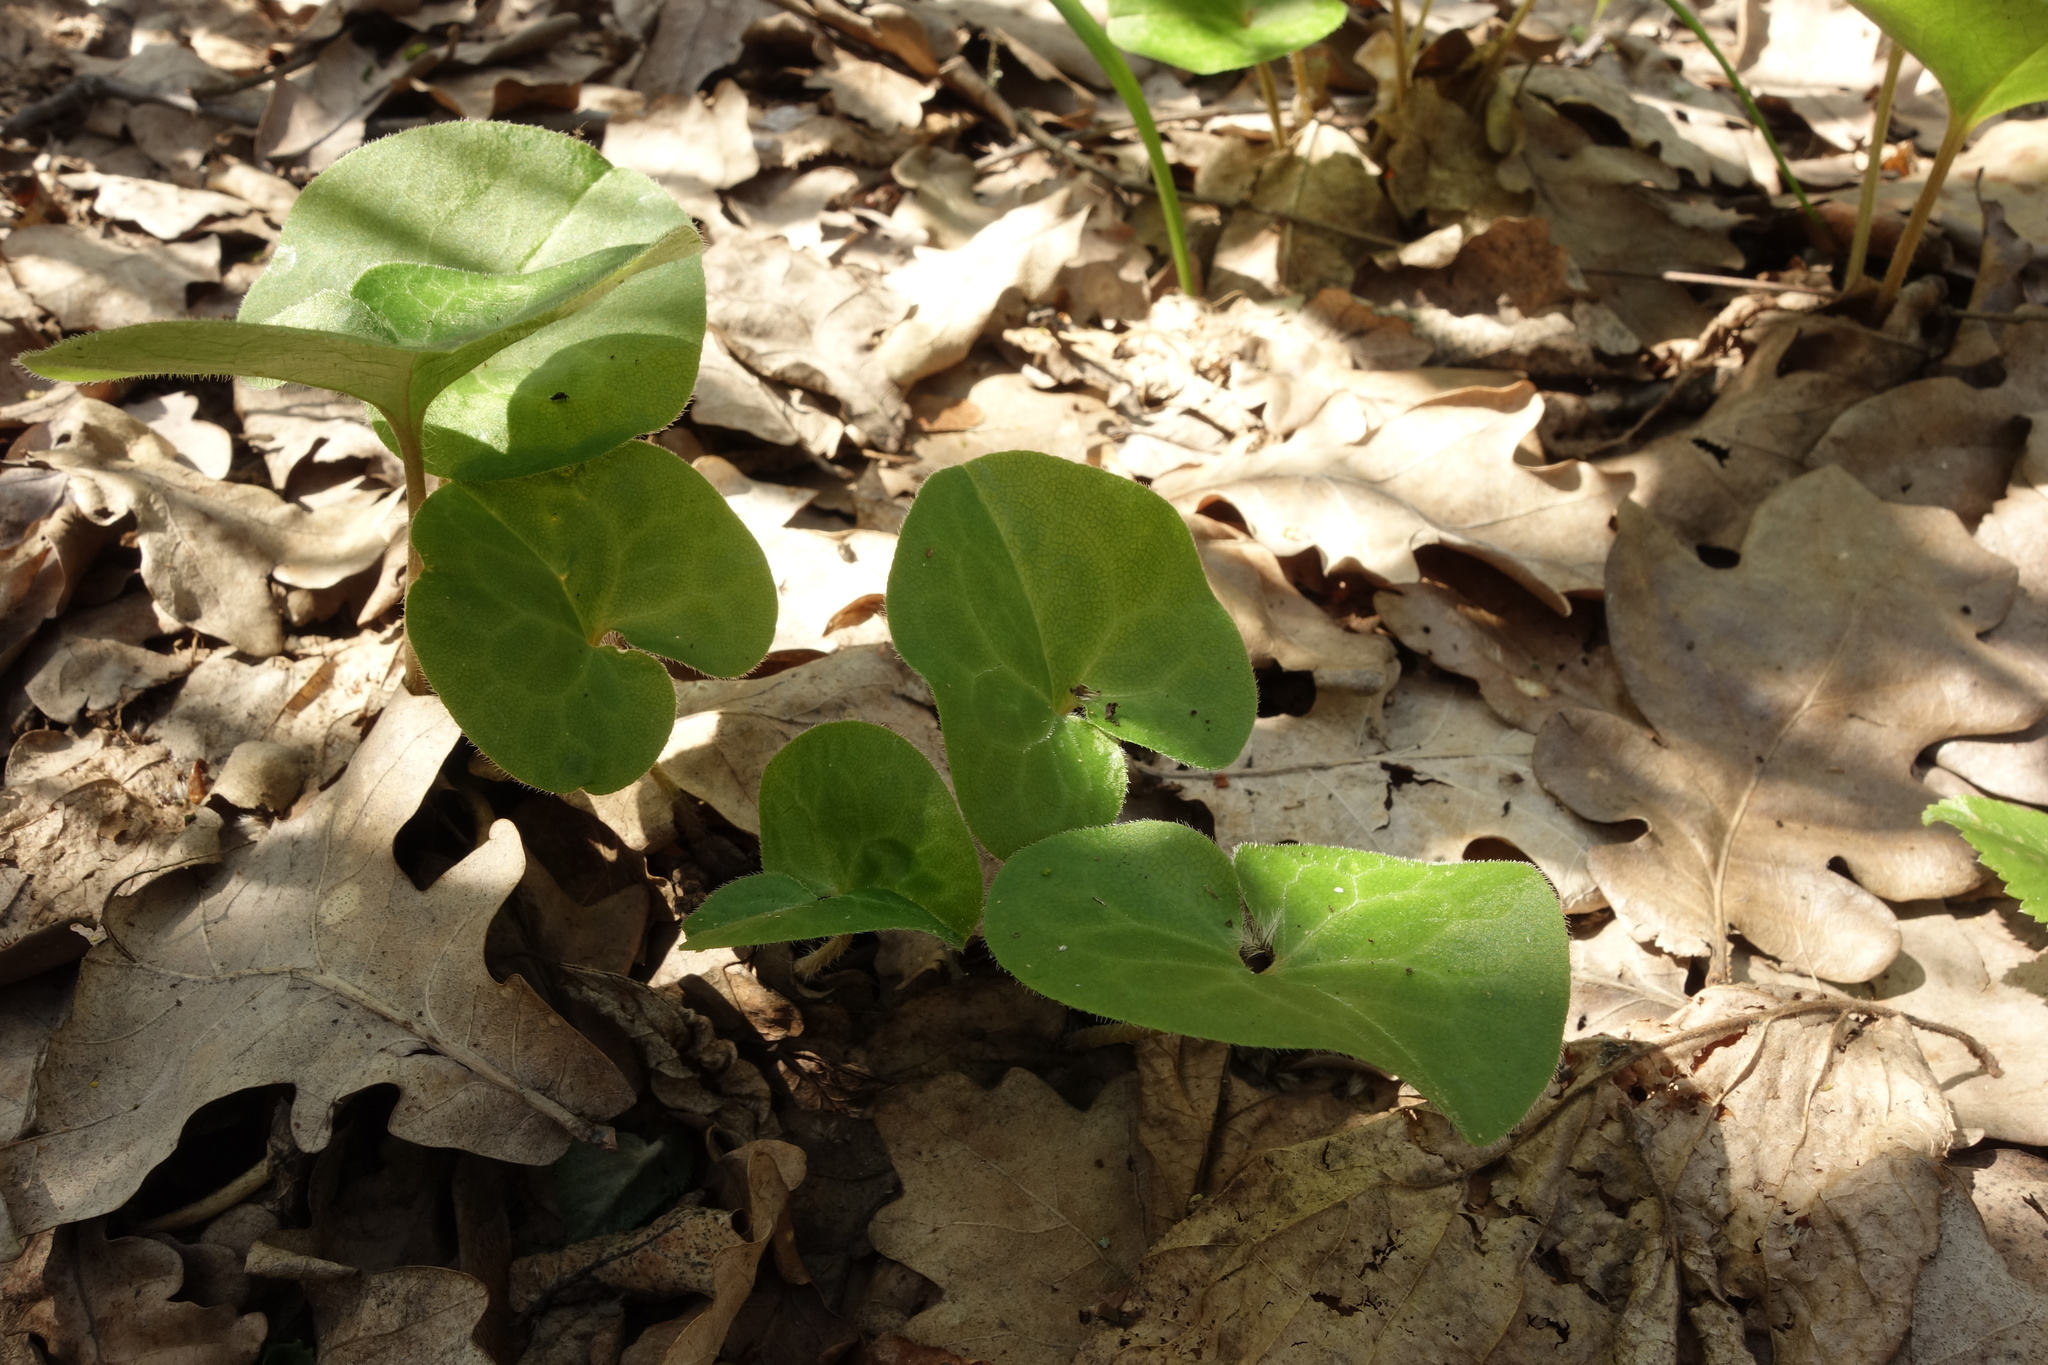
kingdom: Plantae
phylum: Tracheophyta
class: Magnoliopsida
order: Piperales
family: Aristolochiaceae
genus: Asarum
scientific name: Asarum europaeum
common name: Asarabacca
